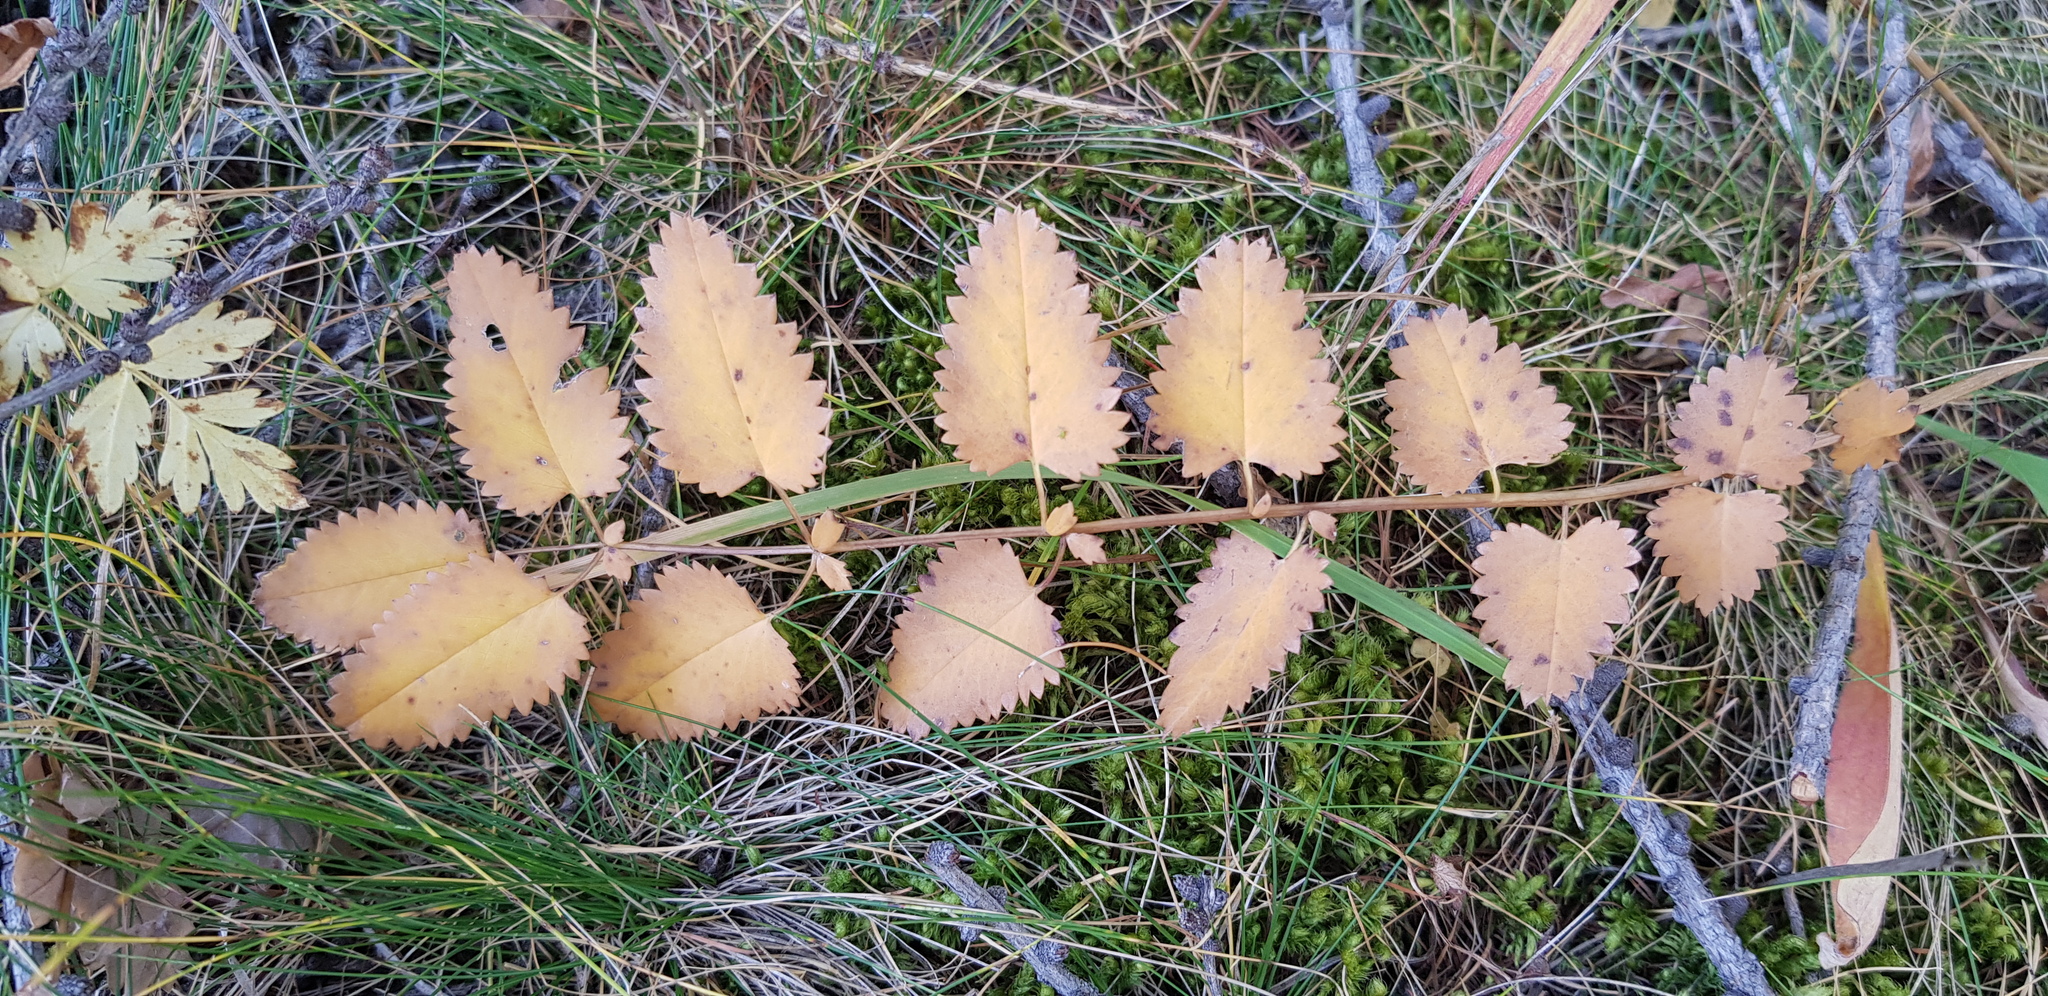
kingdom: Plantae
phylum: Tracheophyta
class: Magnoliopsida
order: Rosales
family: Rosaceae
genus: Sanguisorba
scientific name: Sanguisorba officinalis
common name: Great burnet
